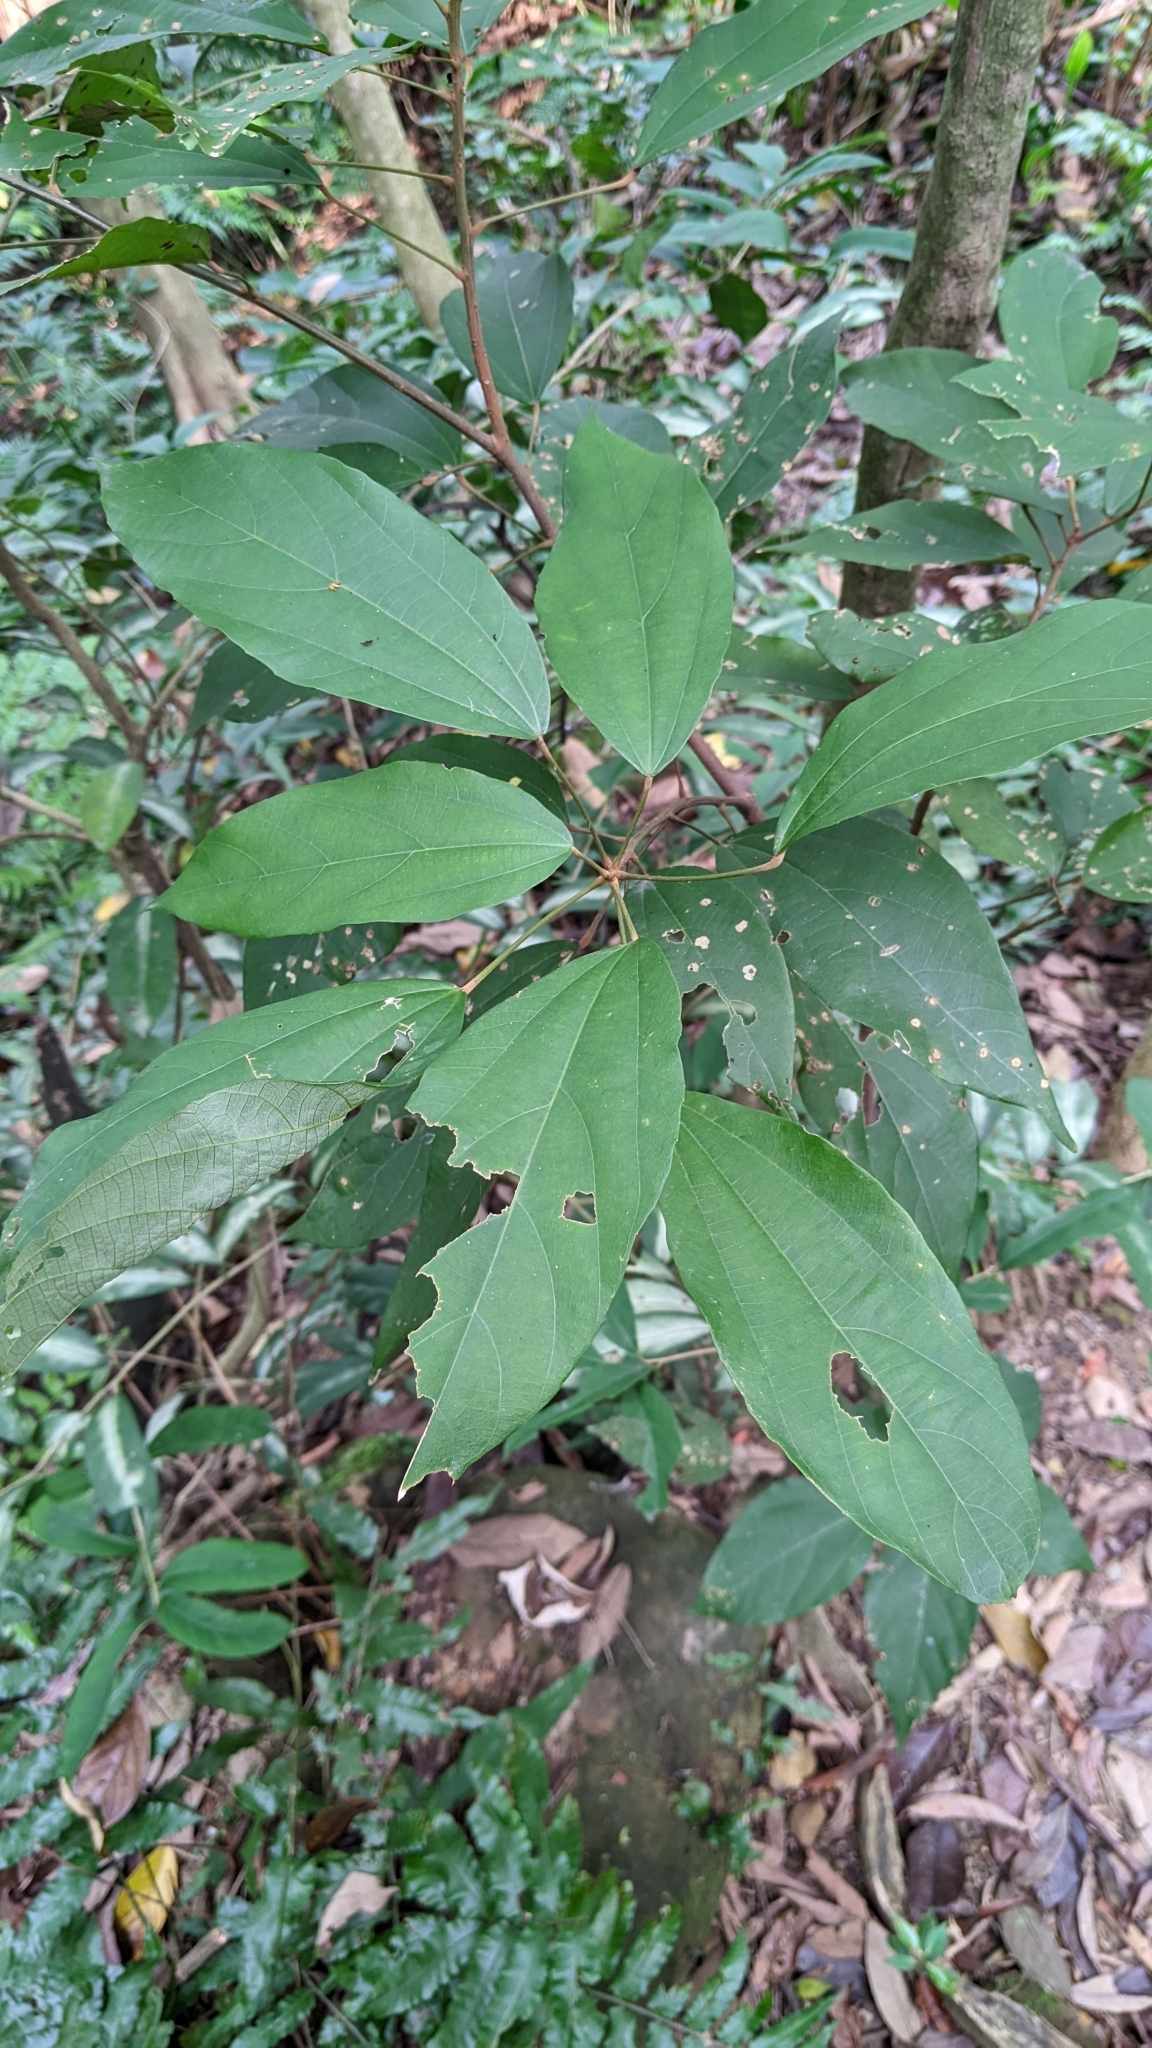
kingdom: Plantae
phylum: Tracheophyta
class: Magnoliopsida
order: Malpighiales
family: Euphorbiaceae
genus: Mallotus
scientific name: Mallotus philippensis
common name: Kamala tree
